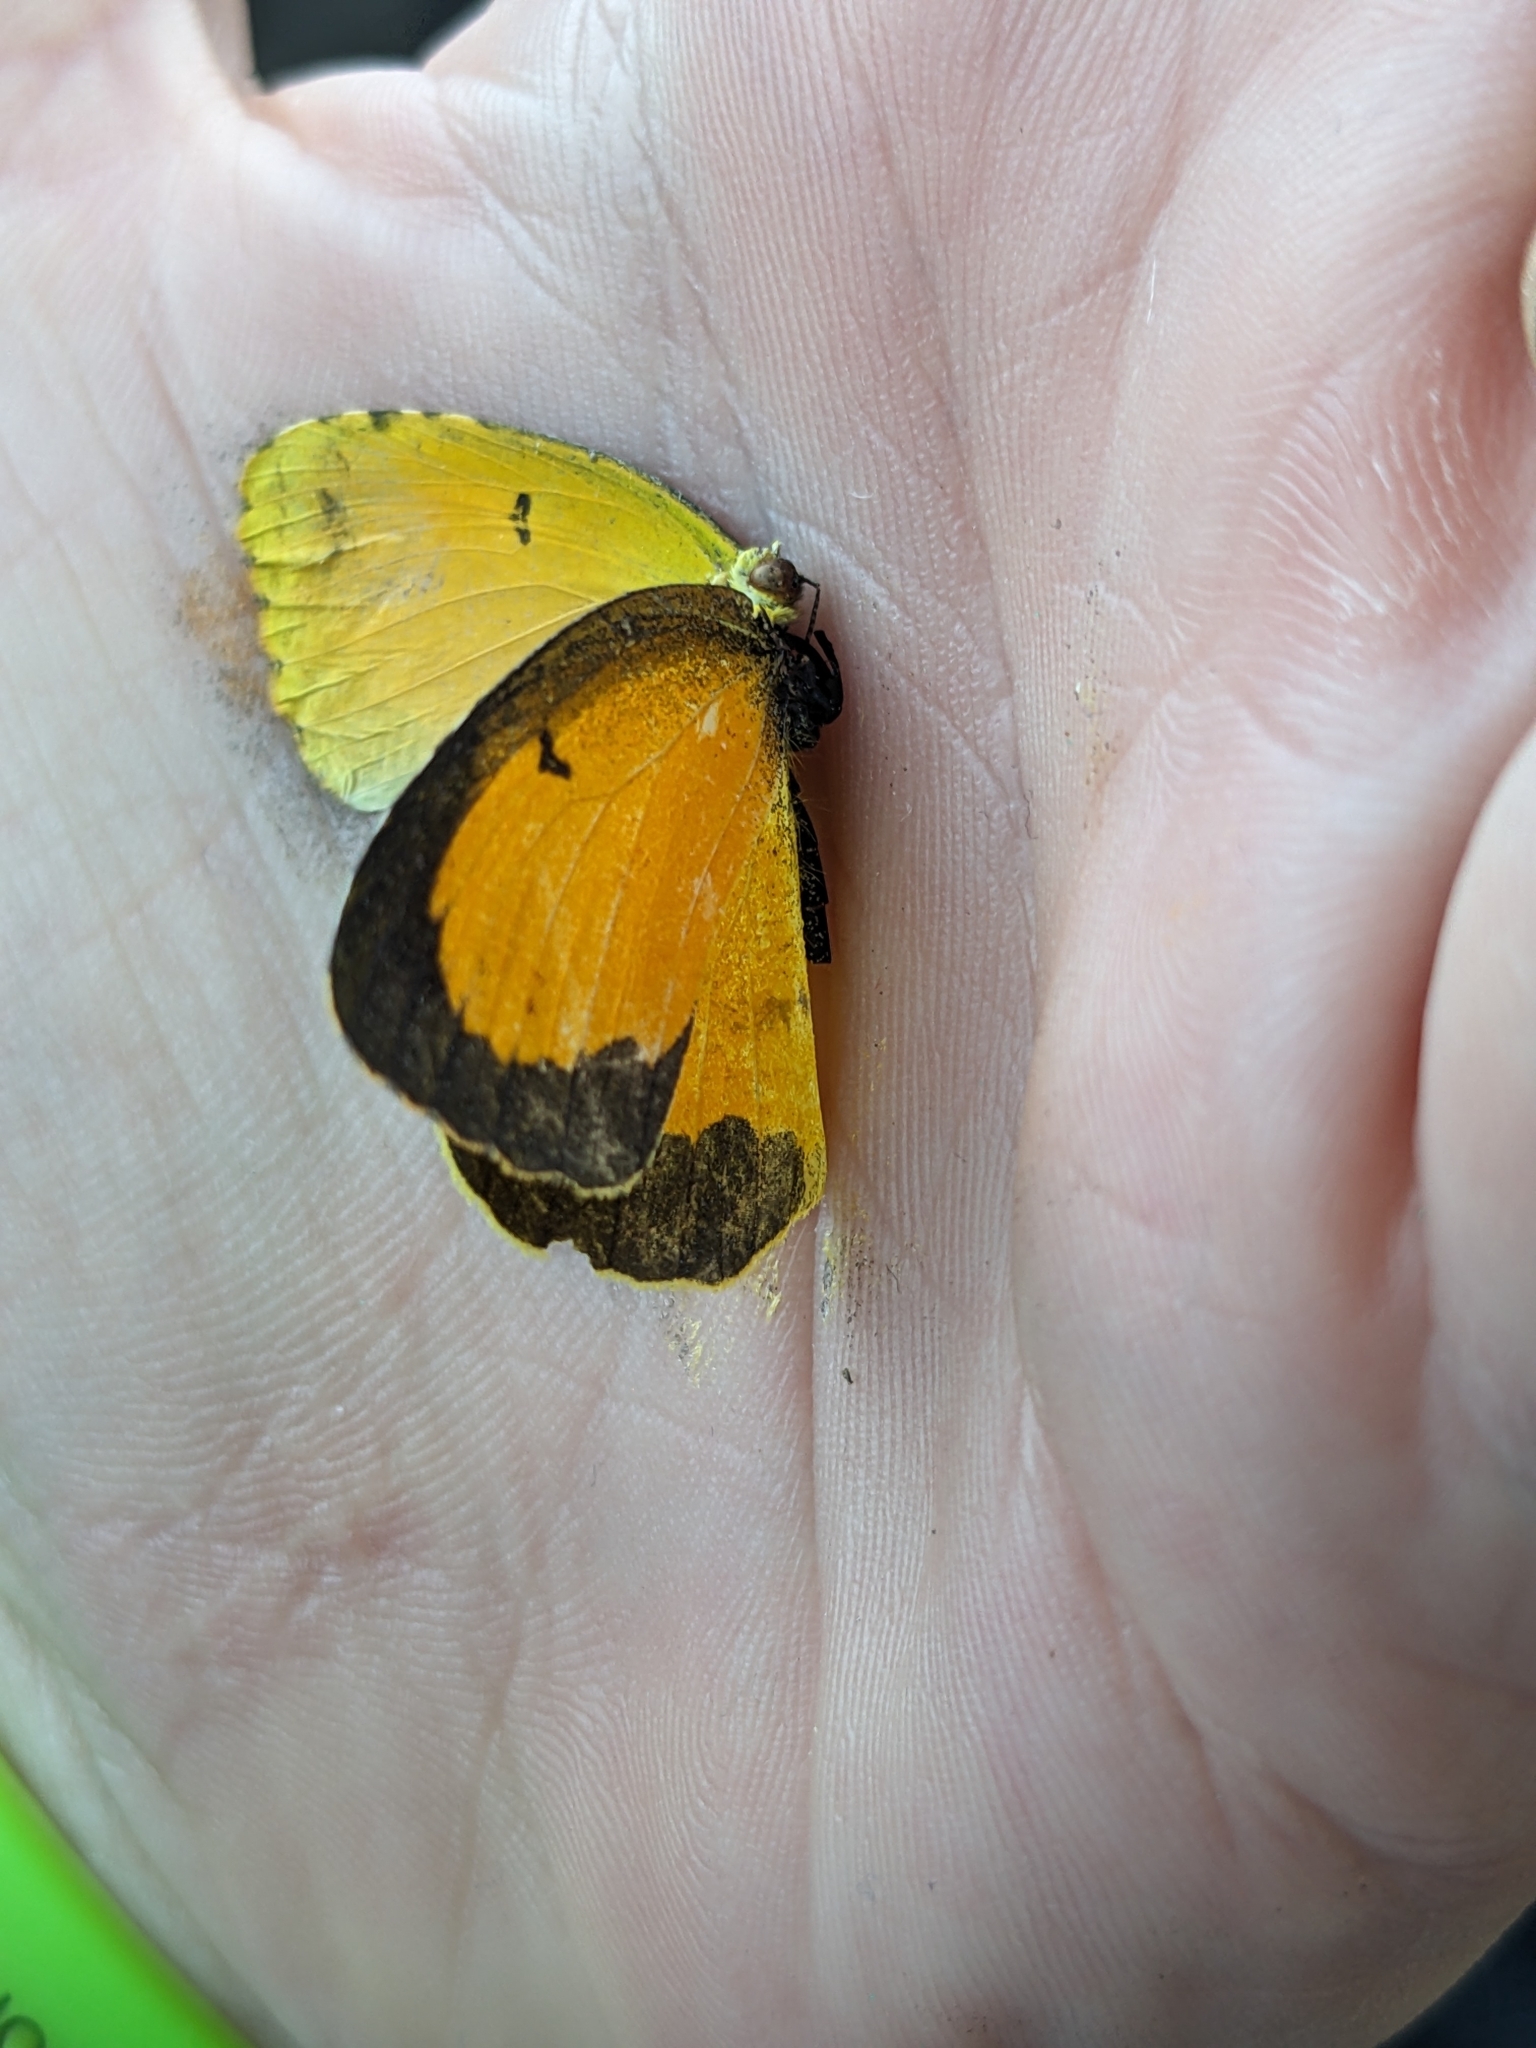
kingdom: Animalia
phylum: Arthropoda
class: Insecta
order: Lepidoptera
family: Pieridae
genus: Abaeis
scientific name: Abaeis nicippe
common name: Sleepy orange
